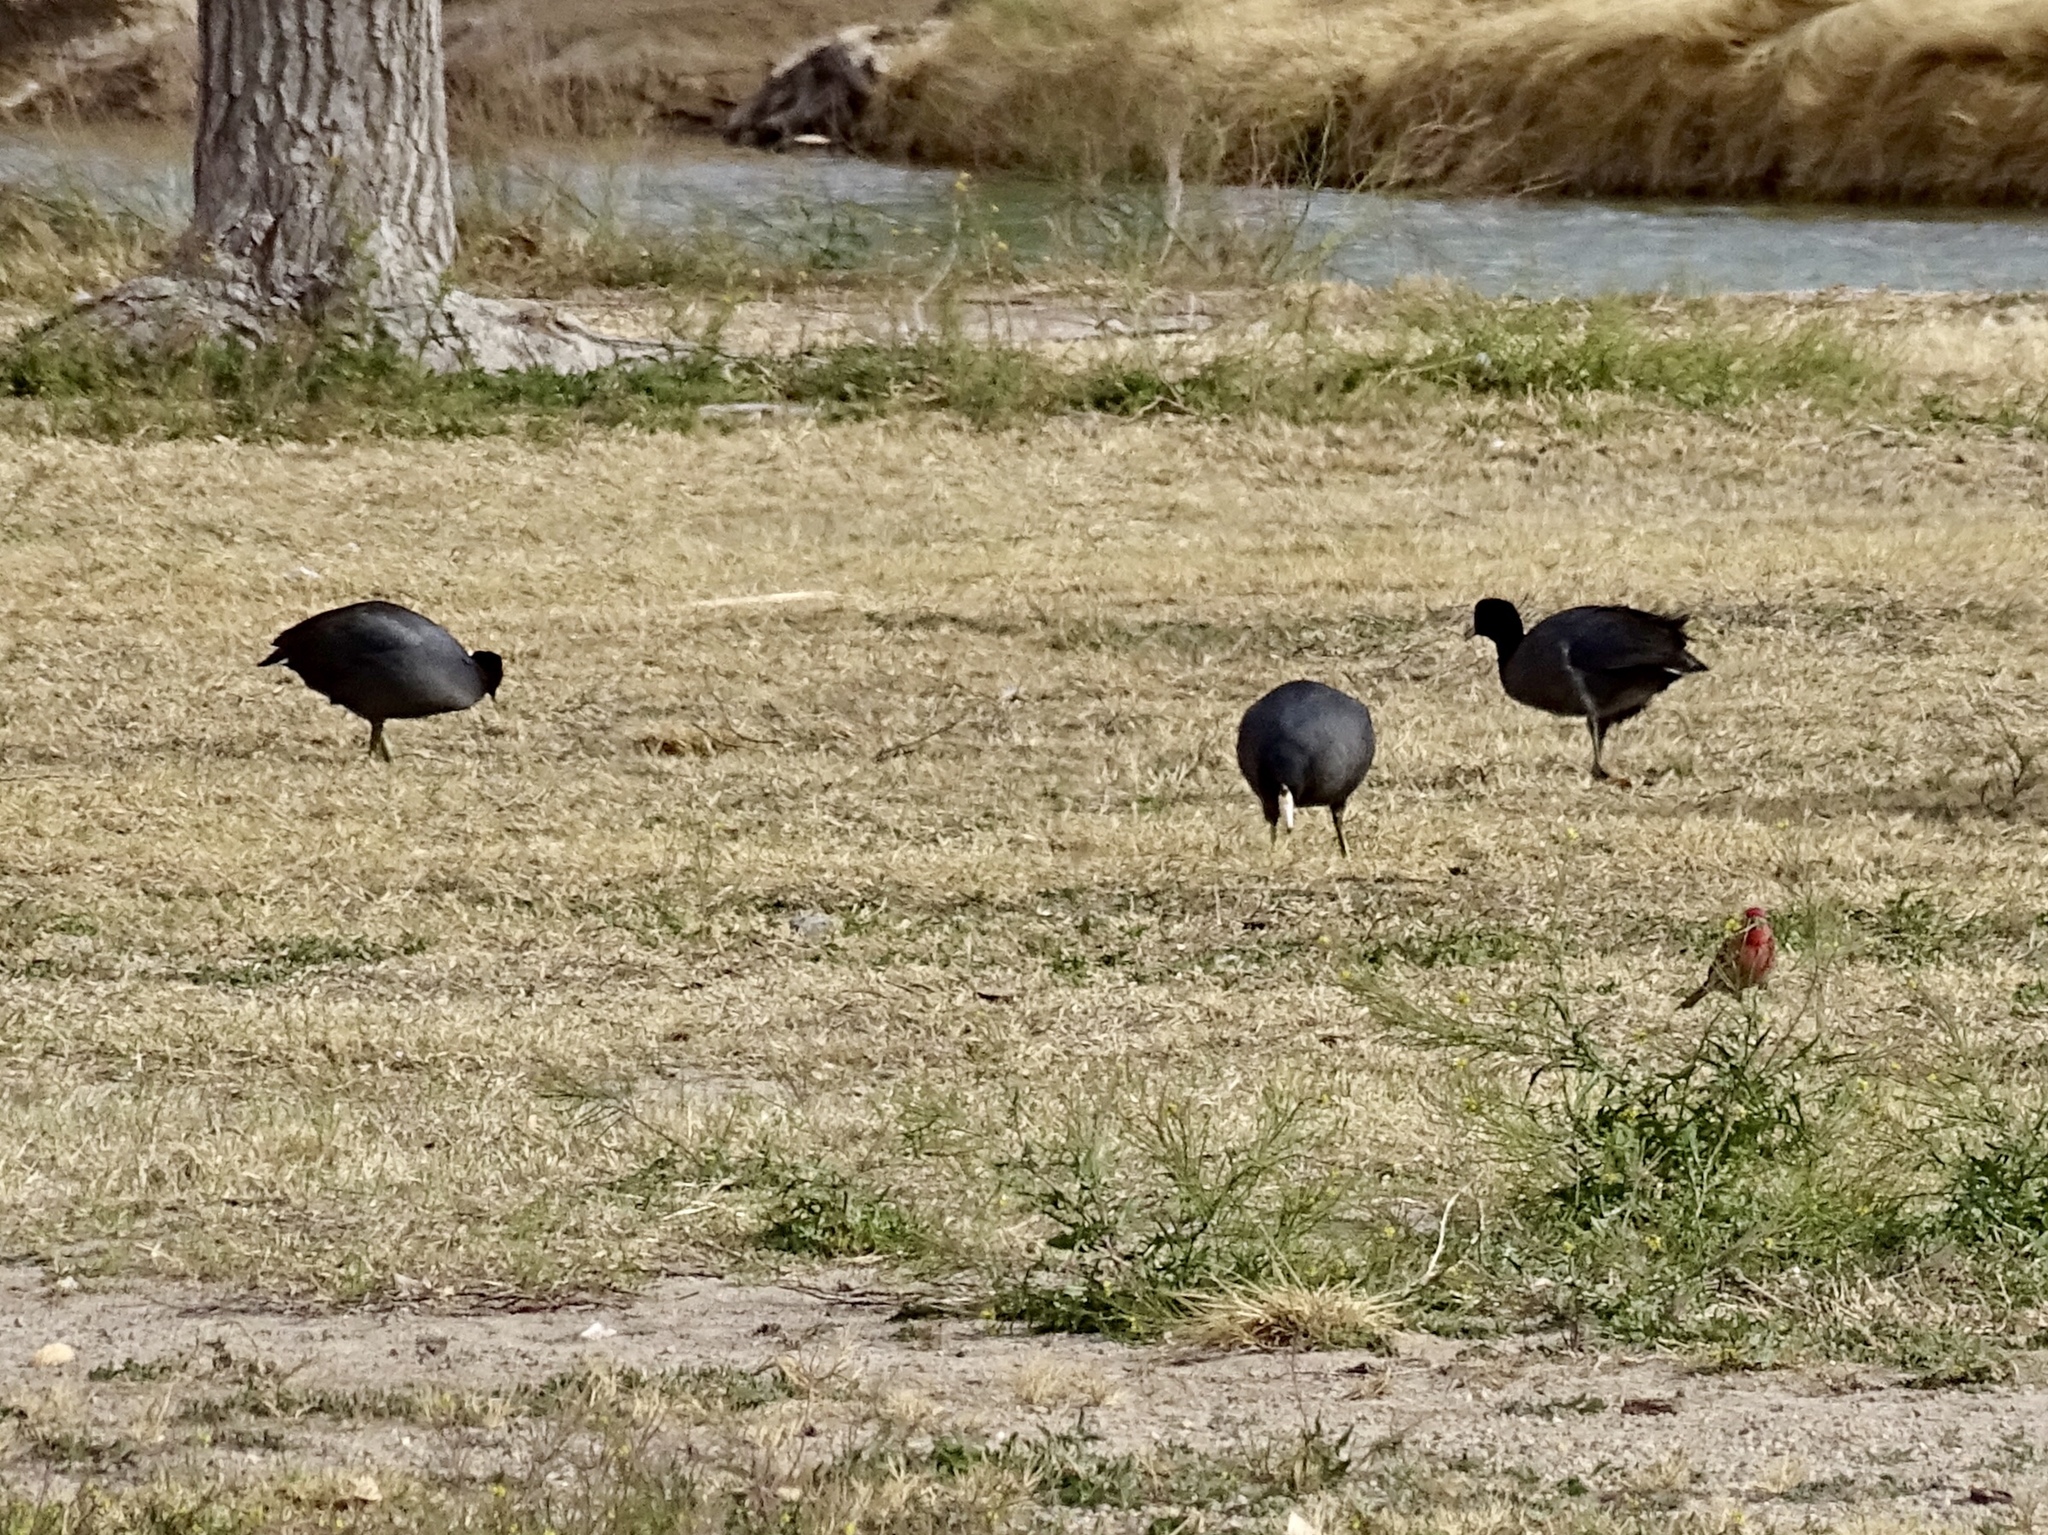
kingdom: Animalia
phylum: Chordata
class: Aves
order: Gruiformes
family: Rallidae
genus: Fulica
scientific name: Fulica americana
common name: American coot
